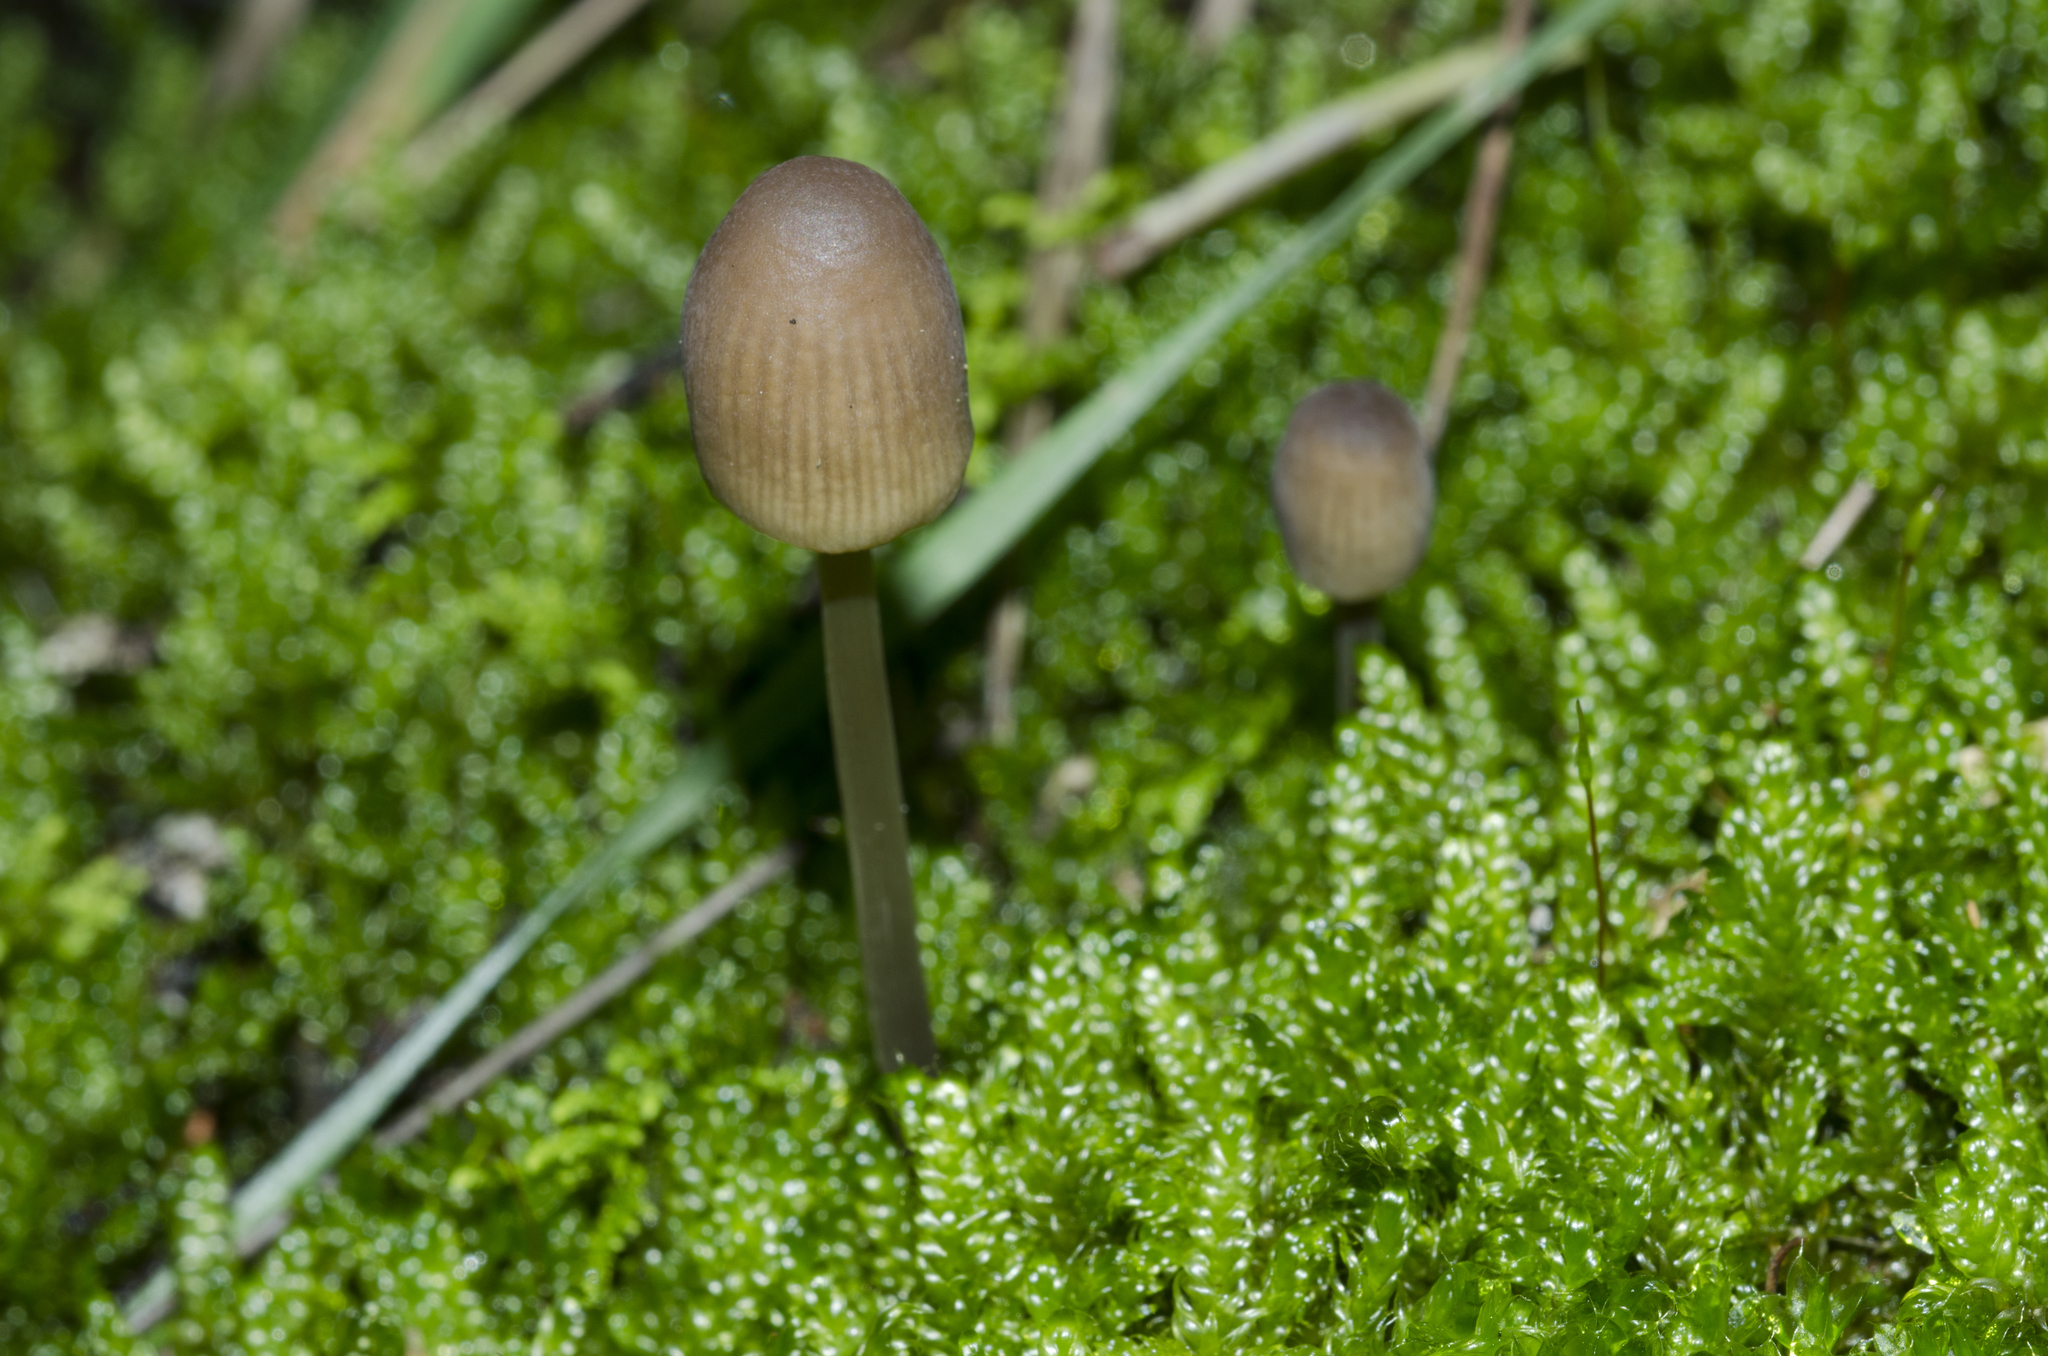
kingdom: Fungi
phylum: Basidiomycota
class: Agaricomycetes
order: Agaricales
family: Mycenaceae
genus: Mycena
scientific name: Mycena metata
